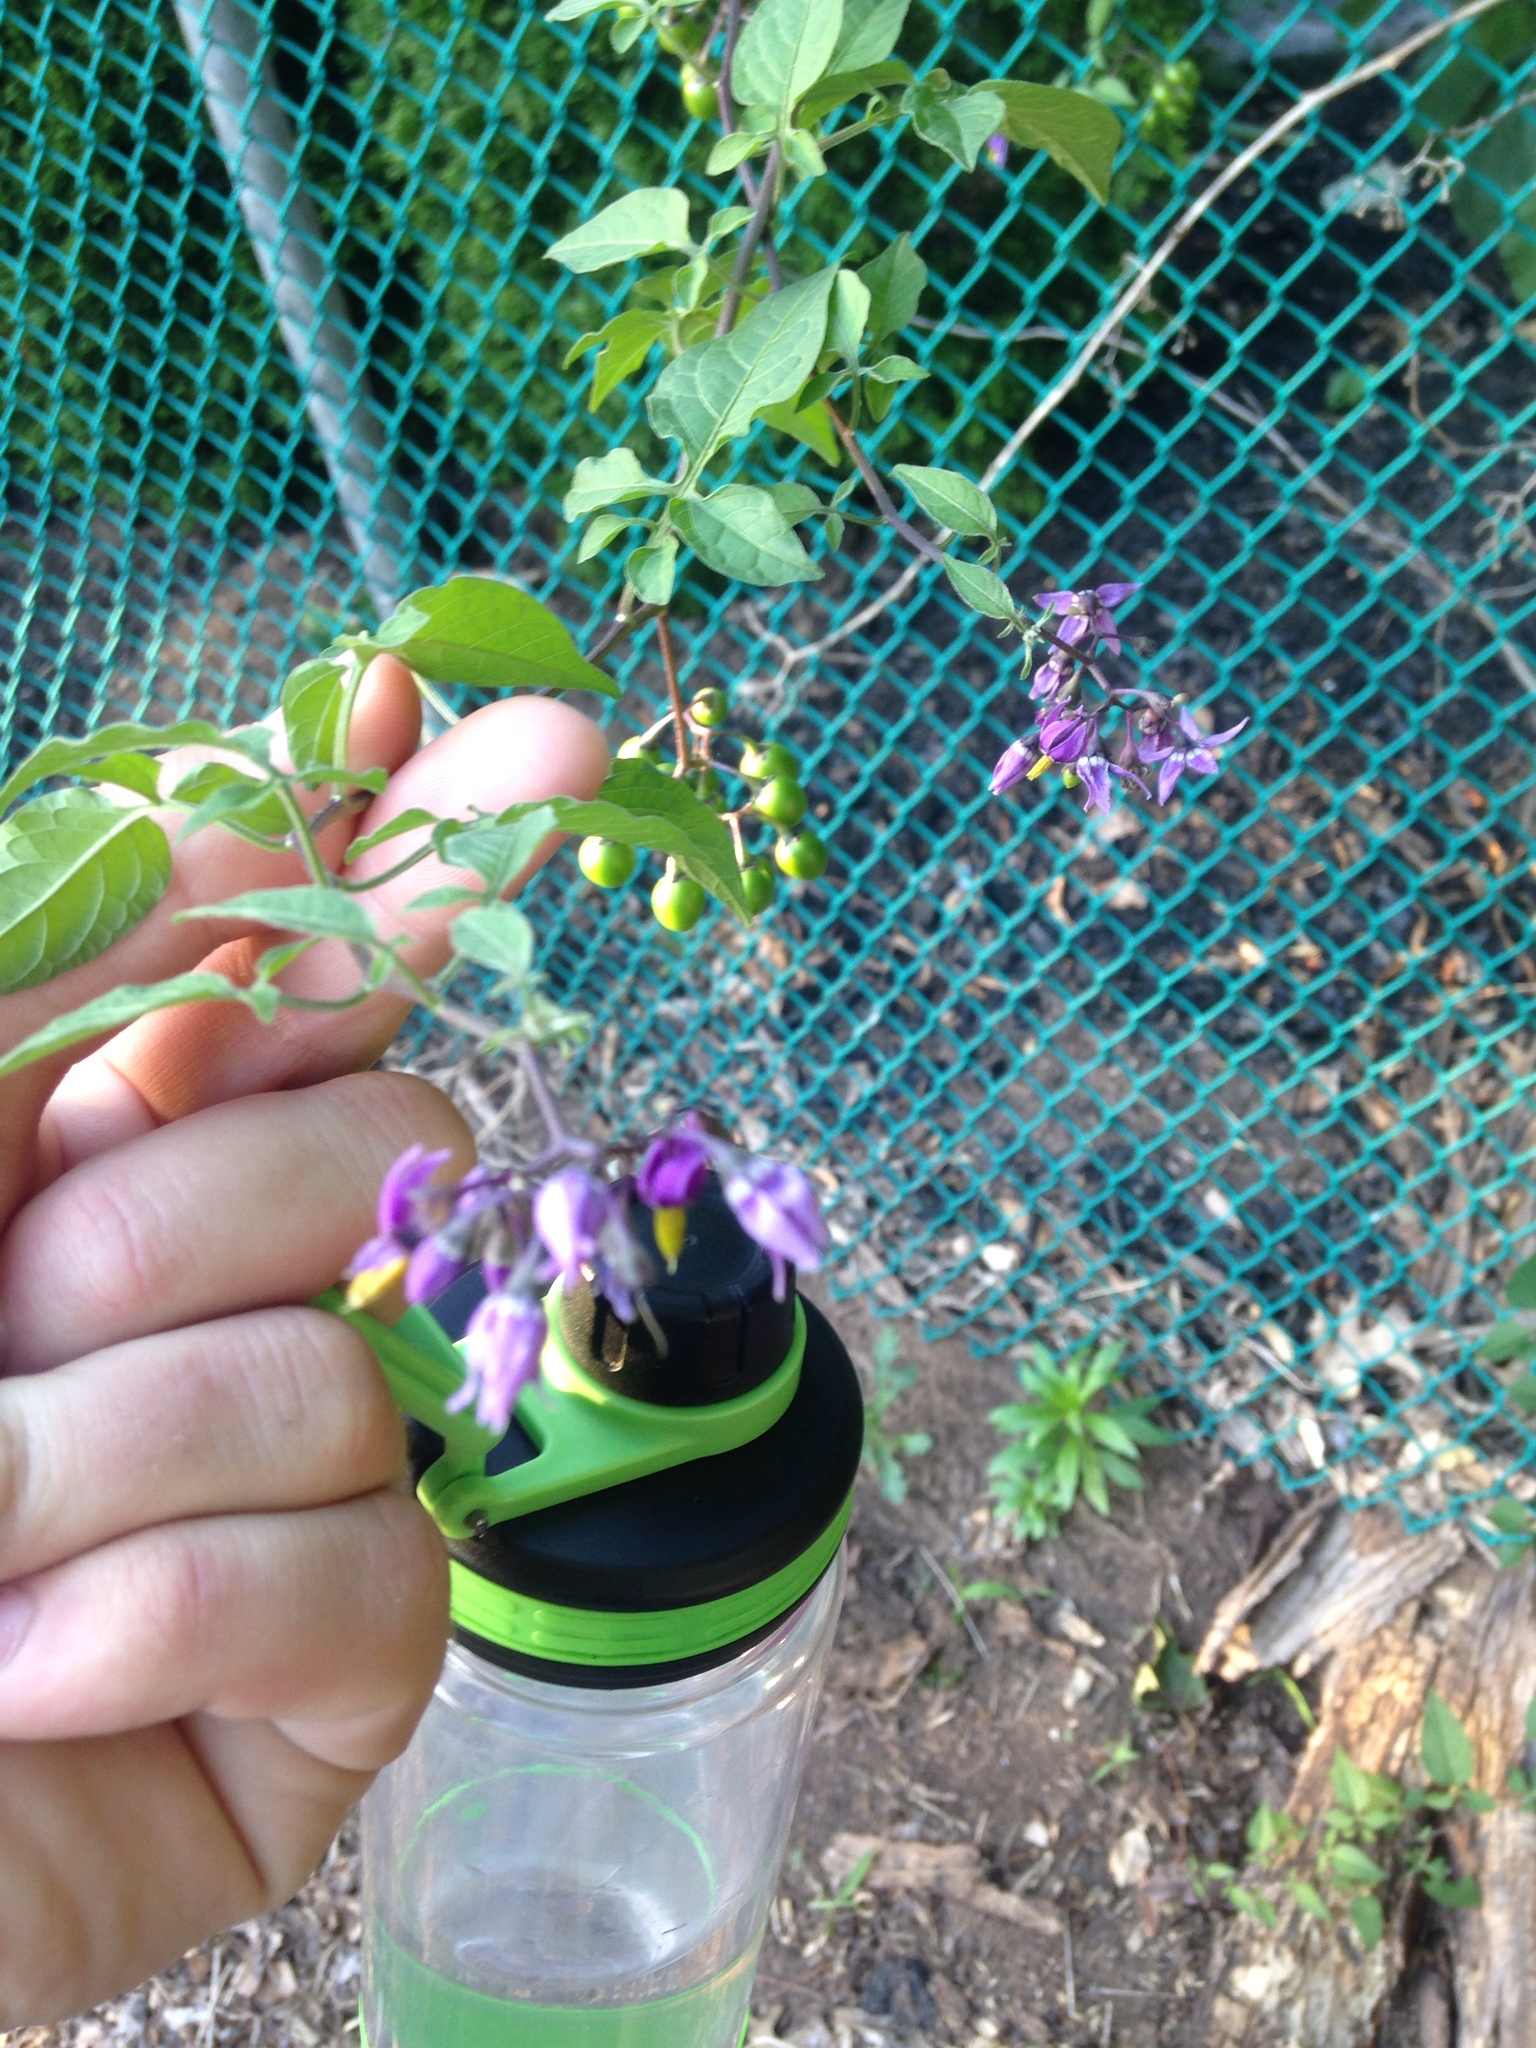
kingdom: Plantae
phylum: Tracheophyta
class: Magnoliopsida
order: Solanales
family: Solanaceae
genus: Solanum
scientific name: Solanum dulcamara
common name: Climbing nightshade
